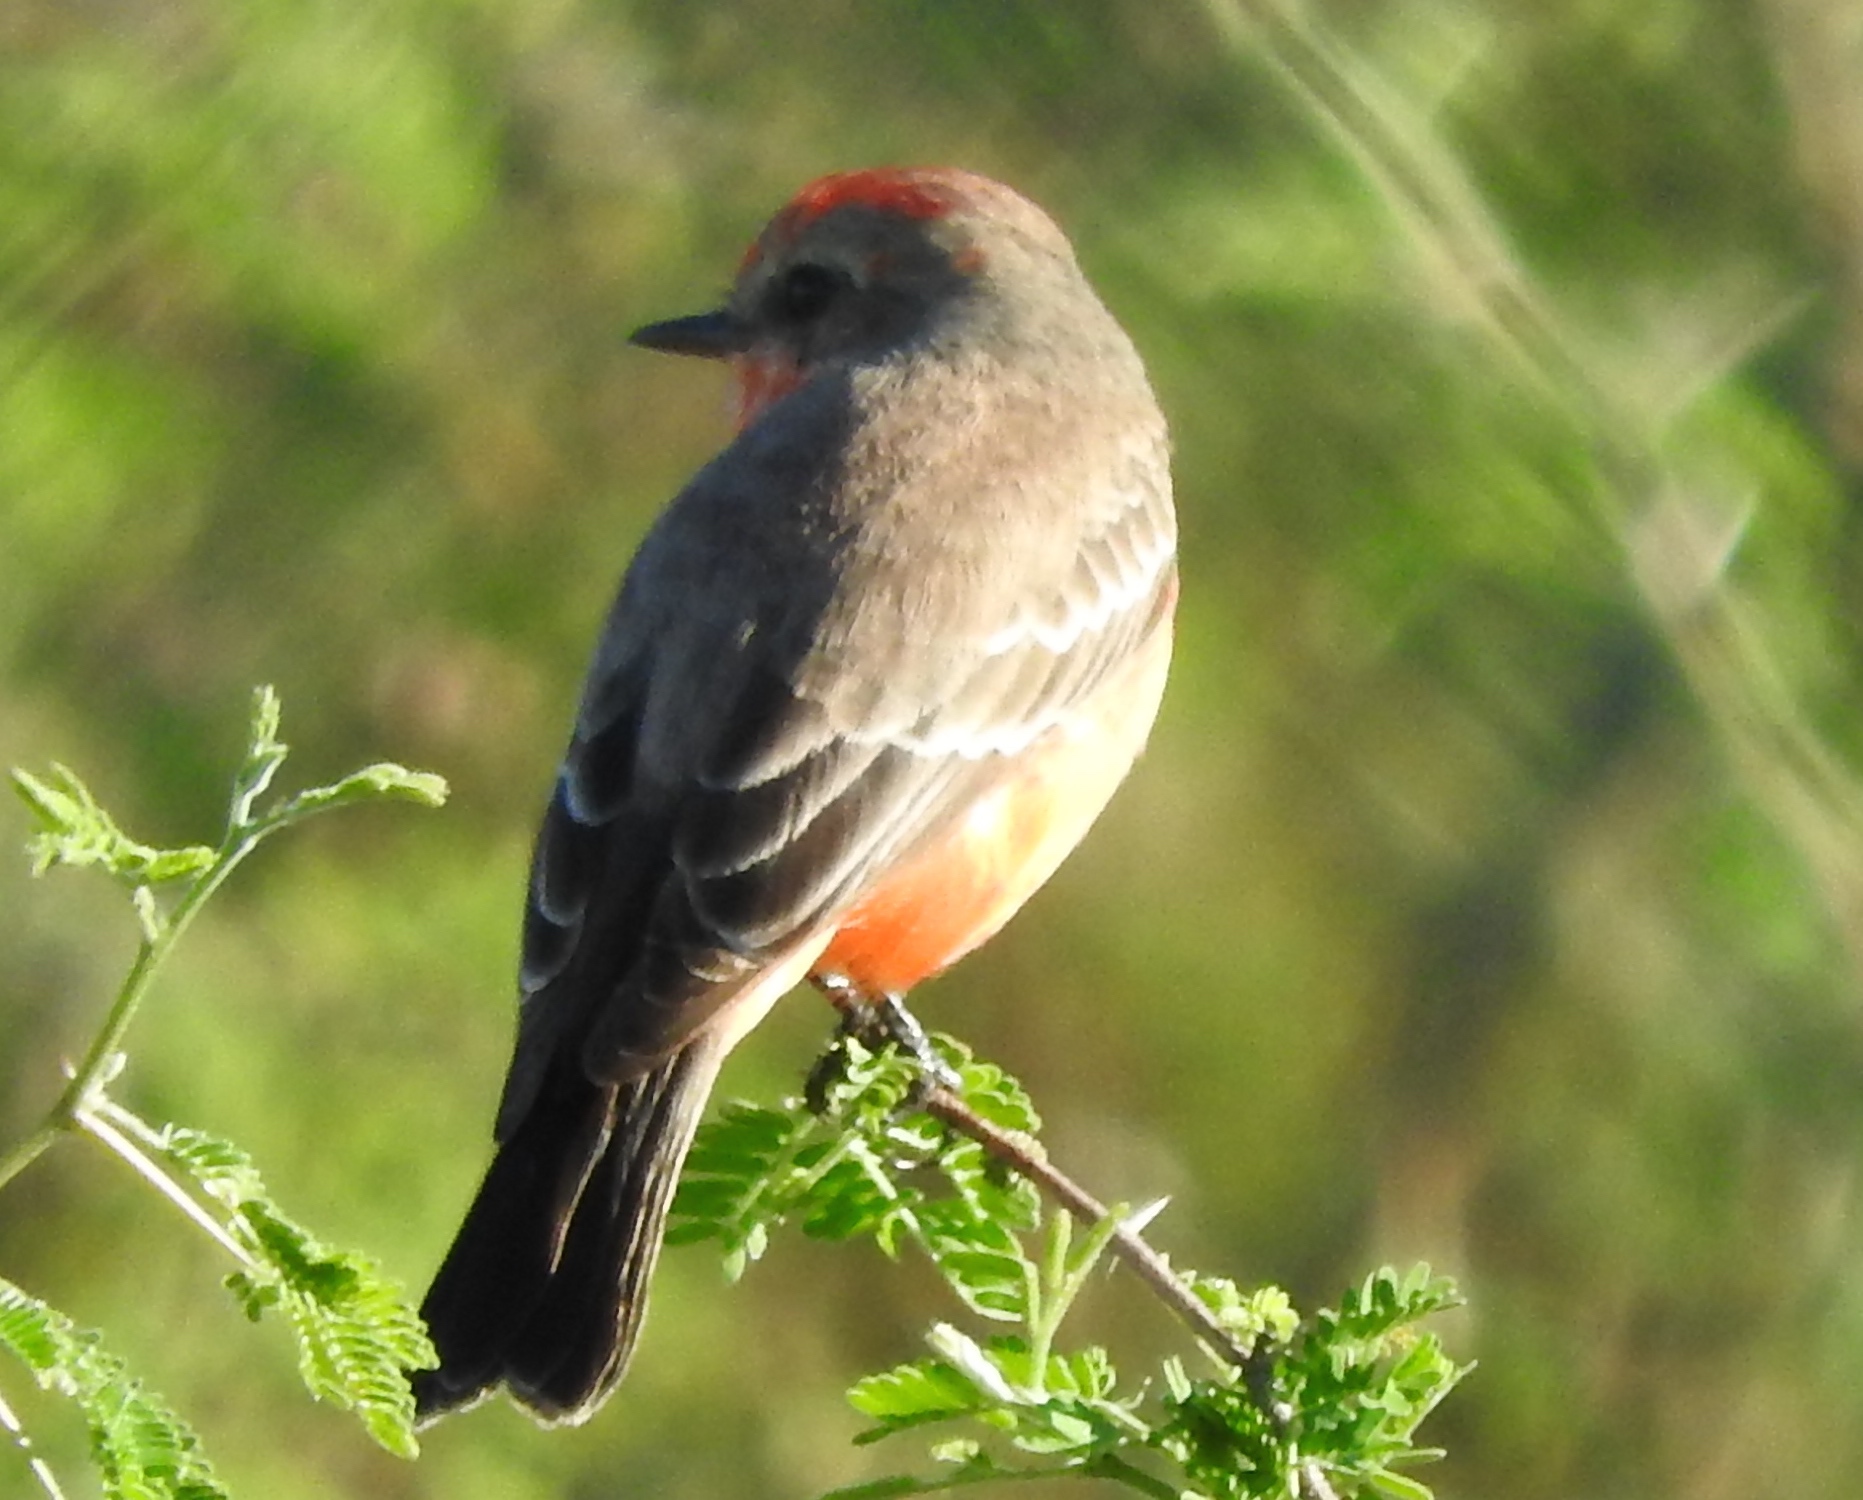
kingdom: Animalia
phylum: Chordata
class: Aves
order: Passeriformes
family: Tyrannidae
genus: Pyrocephalus
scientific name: Pyrocephalus rubinus
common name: Vermilion flycatcher
